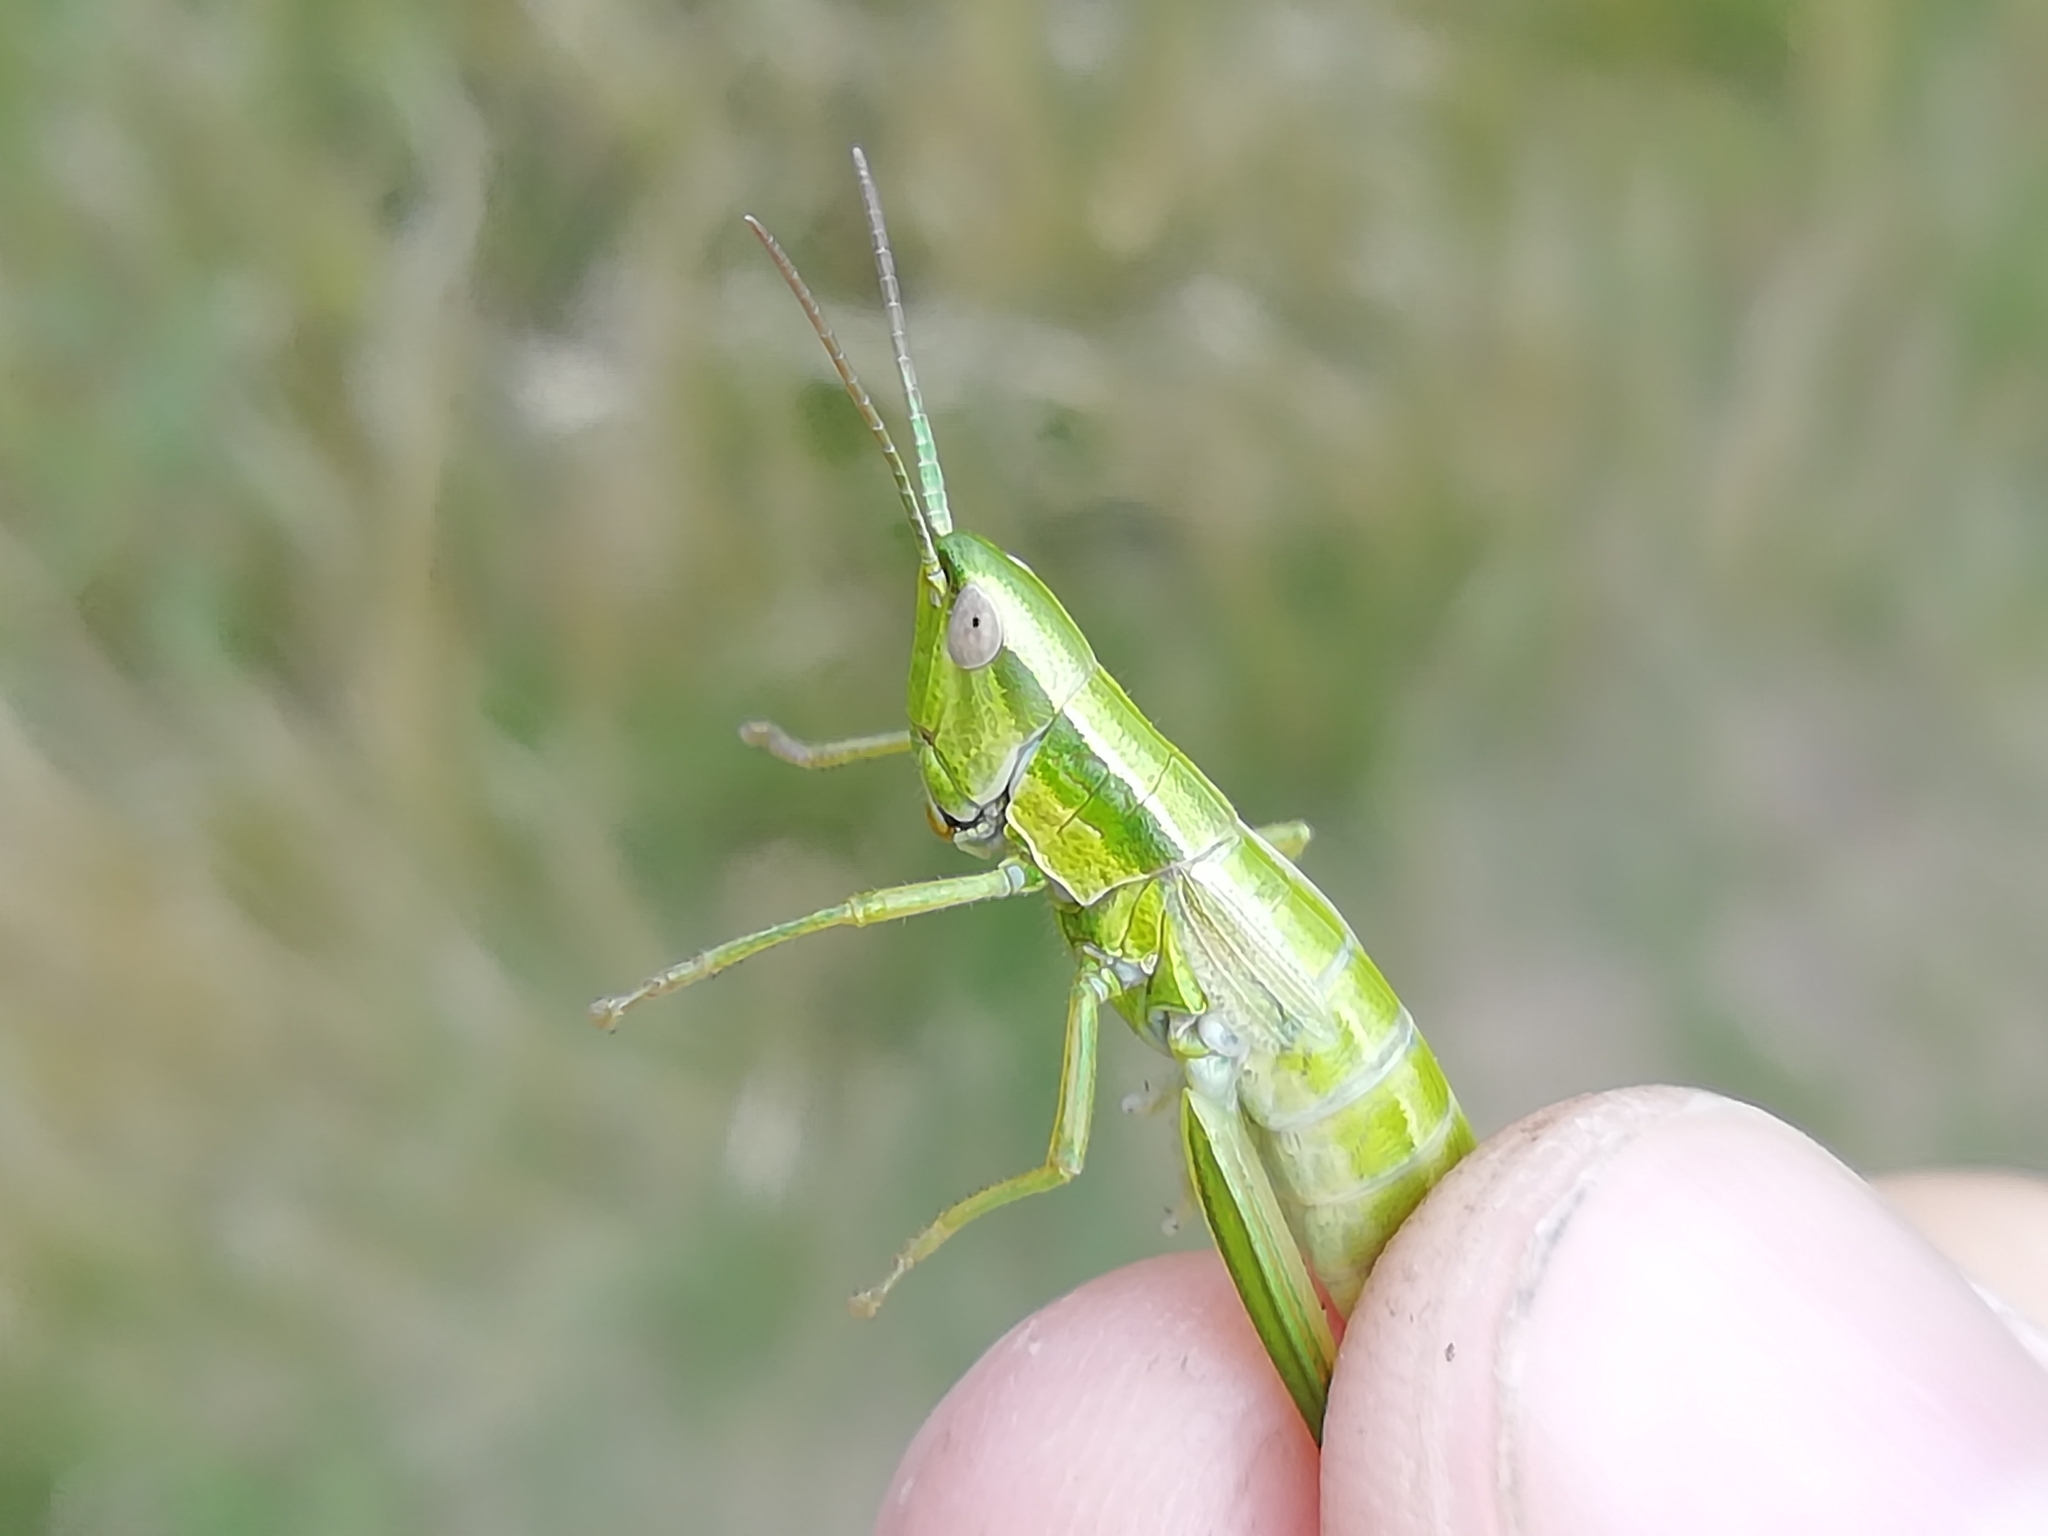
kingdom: Animalia
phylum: Arthropoda
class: Insecta
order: Orthoptera
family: Acrididae
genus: Euthystira
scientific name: Euthystira brachyptera
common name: Small gold grasshopper
